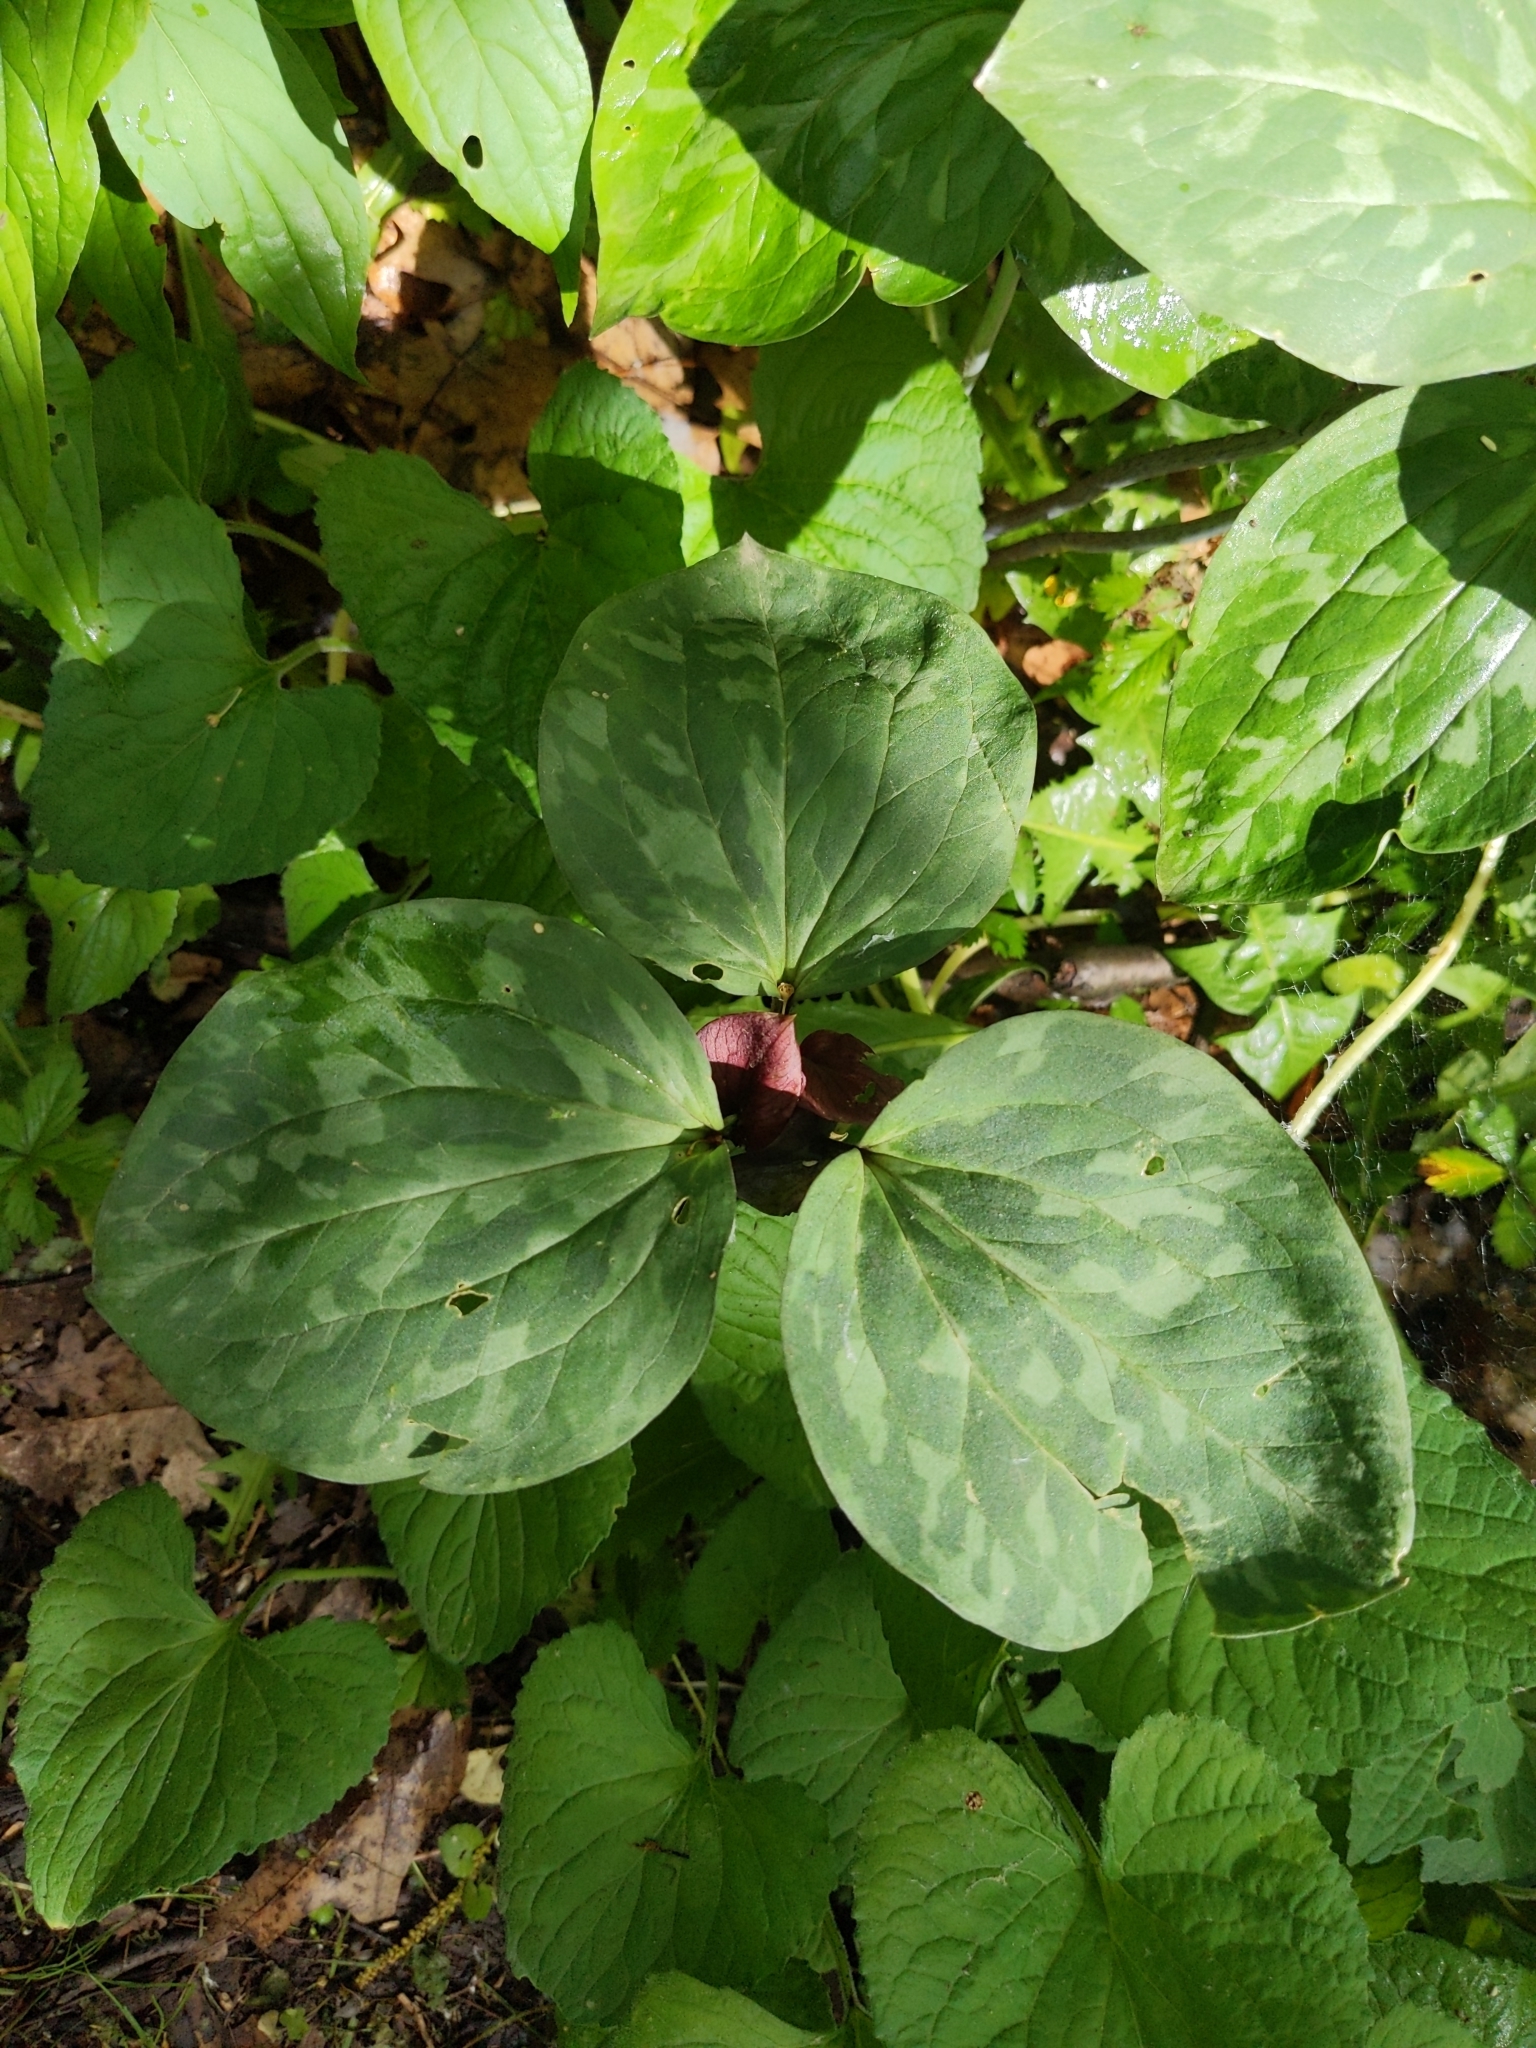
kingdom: Plantae
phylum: Tracheophyta
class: Liliopsida
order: Liliales
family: Melanthiaceae
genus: Trillium
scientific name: Trillium recurvatum
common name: Bloody butcher
